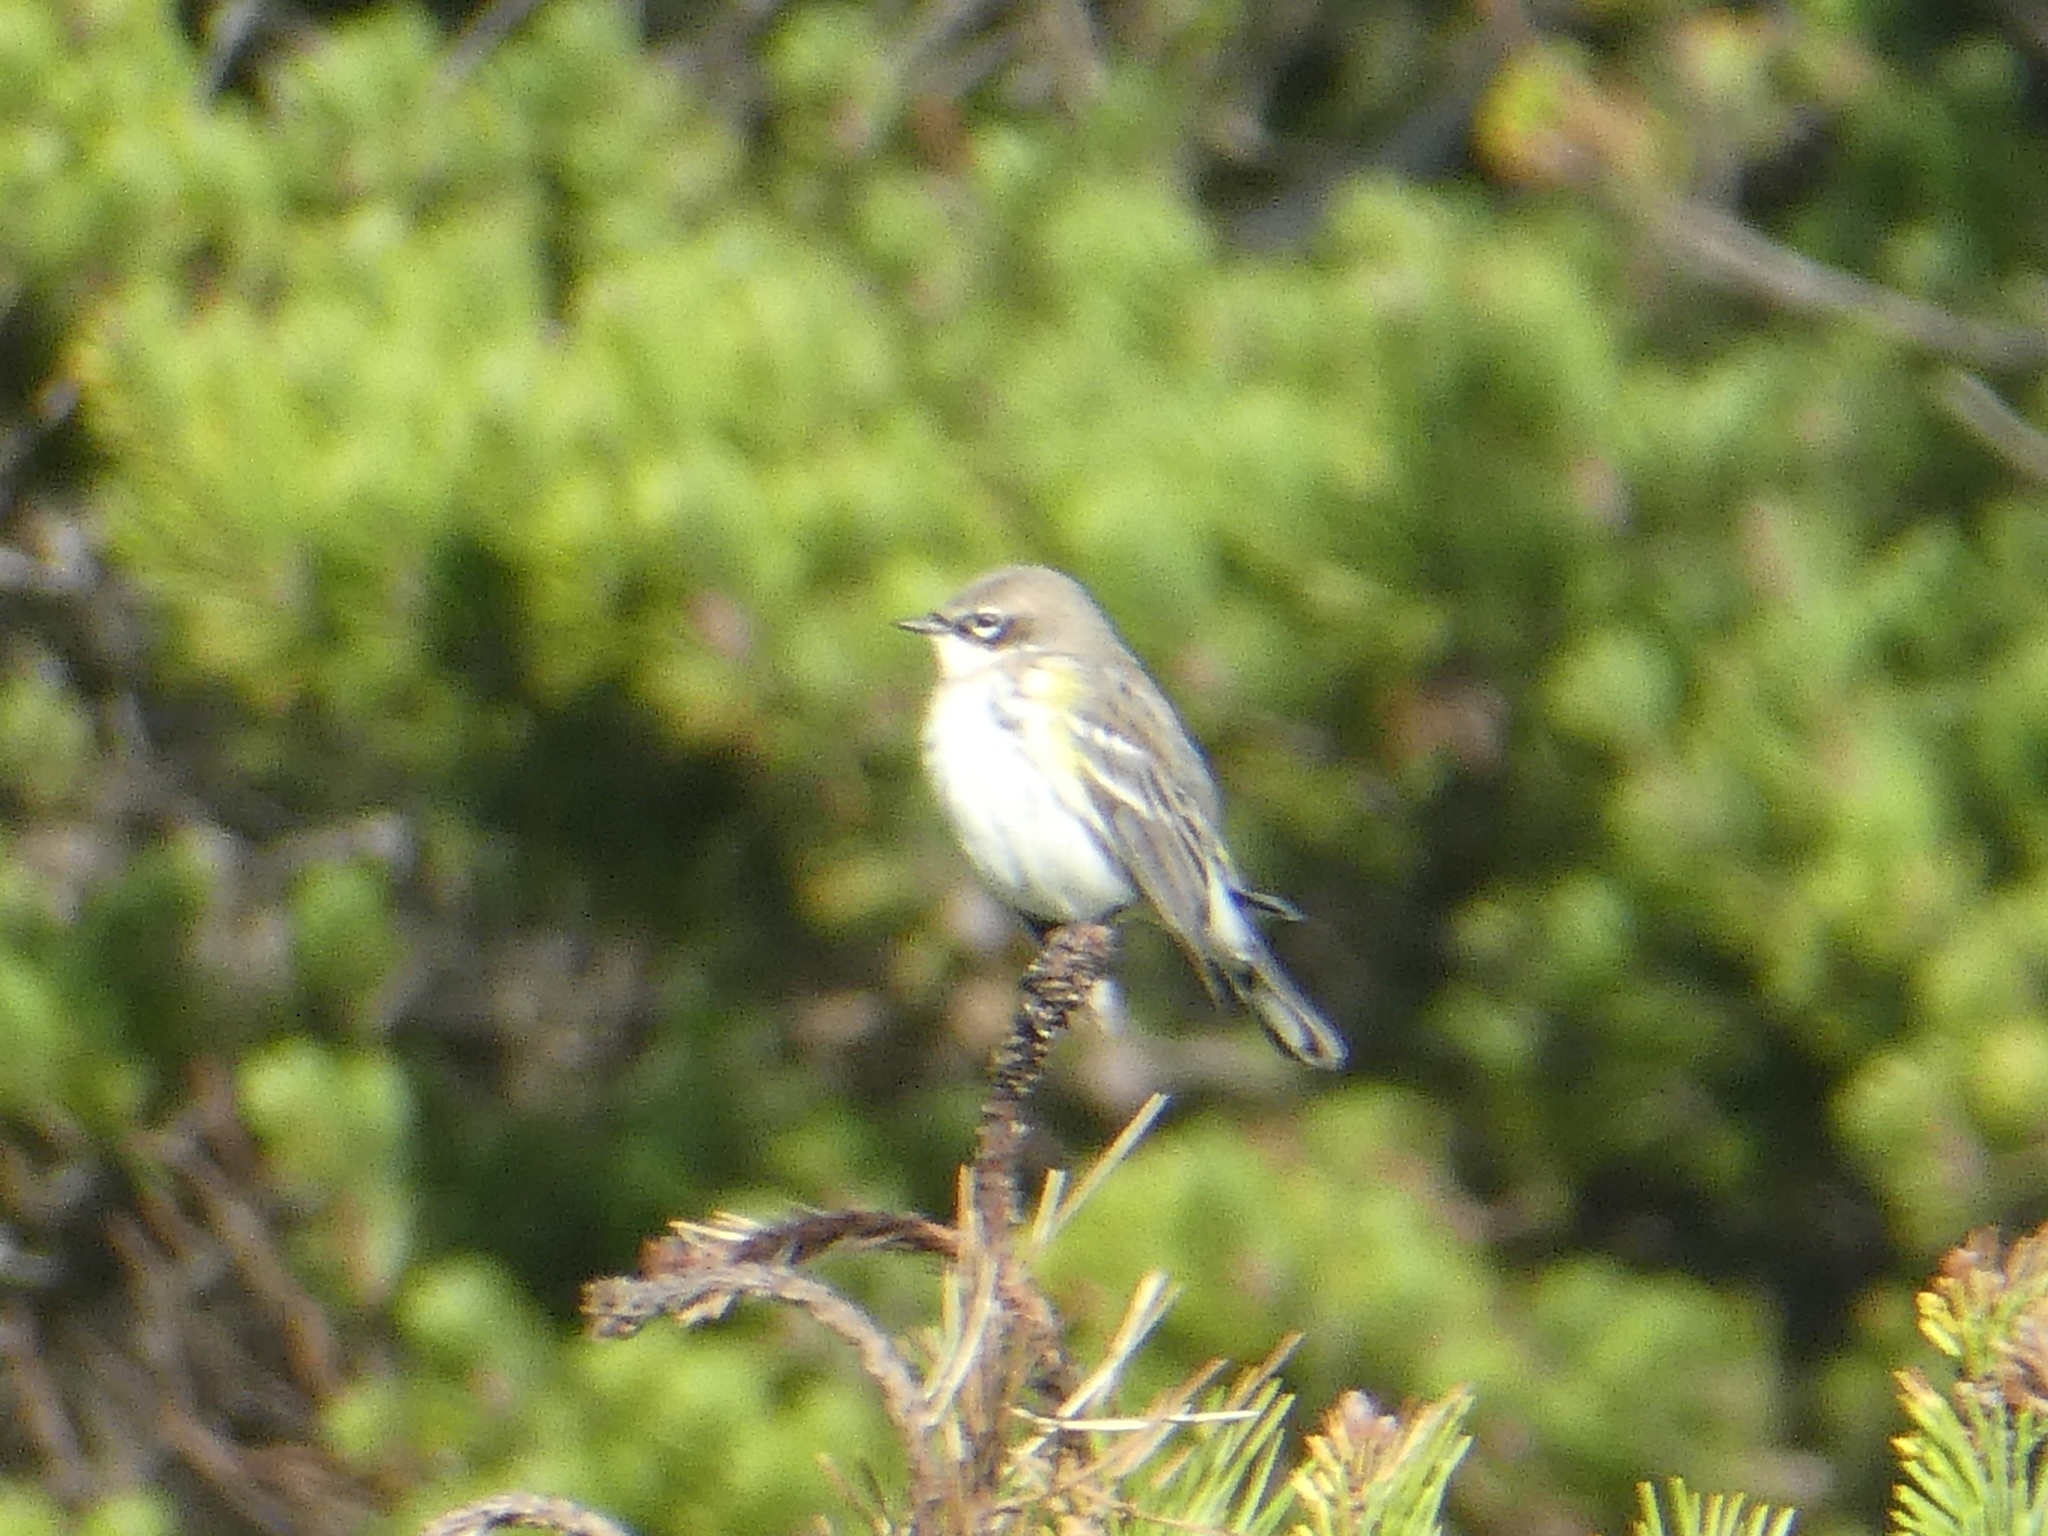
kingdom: Animalia
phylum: Chordata
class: Aves
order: Passeriformes
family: Parulidae
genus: Setophaga
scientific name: Setophaga coronata
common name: Myrtle warbler
